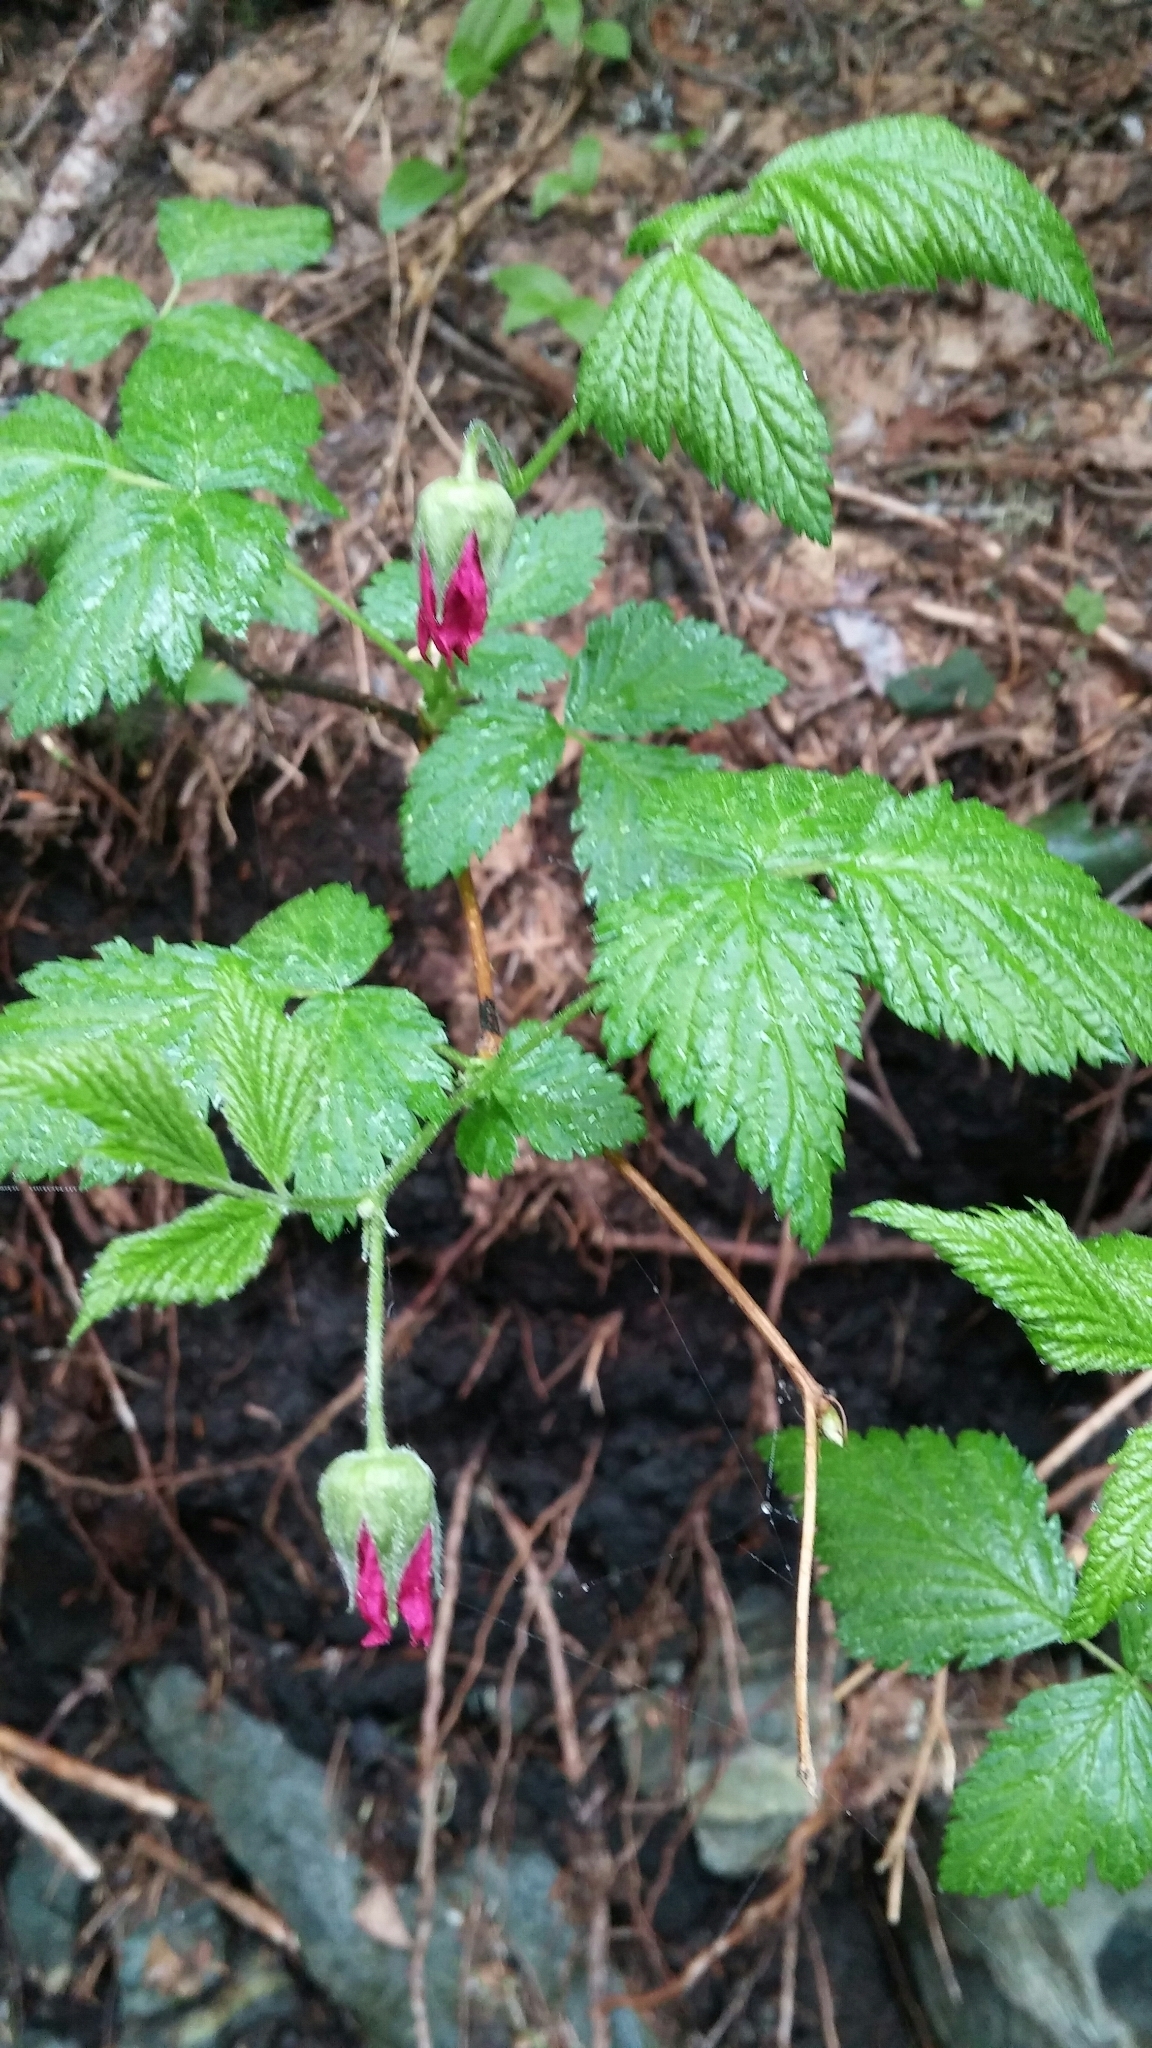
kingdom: Plantae
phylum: Tracheophyta
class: Magnoliopsida
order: Rosales
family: Rosaceae
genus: Rubus
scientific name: Rubus spectabilis
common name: Salmonberry
